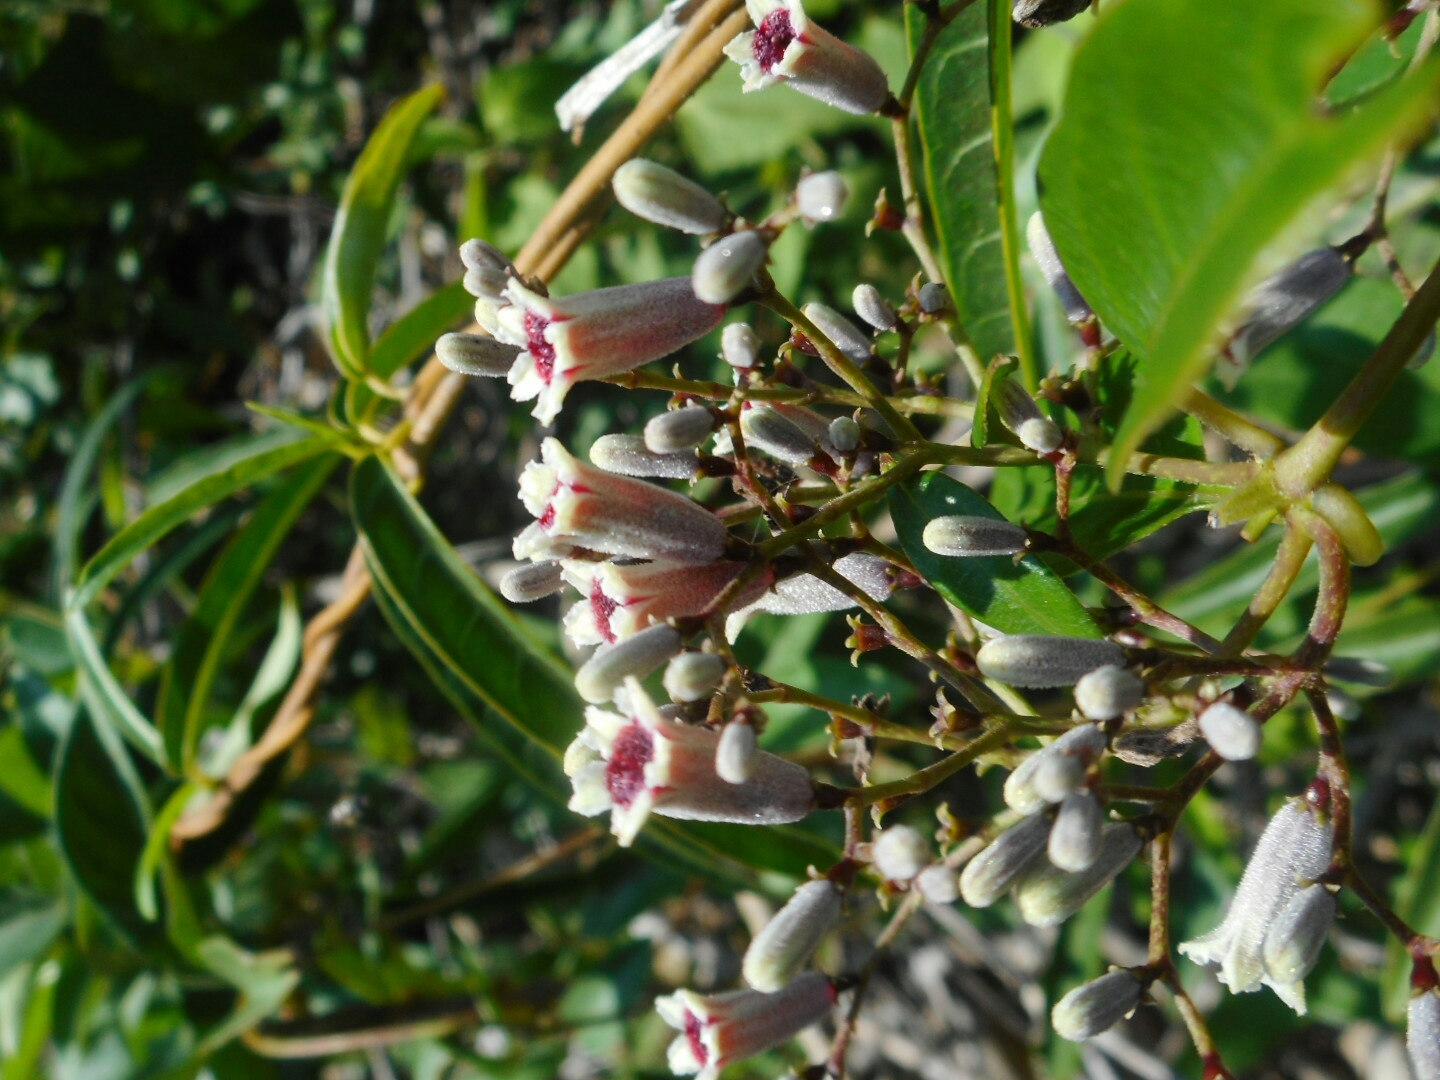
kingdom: Plantae
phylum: Tracheophyta
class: Magnoliopsida
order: Gentianales
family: Rubiaceae
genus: Paederia
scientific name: Paederia foetida
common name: Stinkvine
